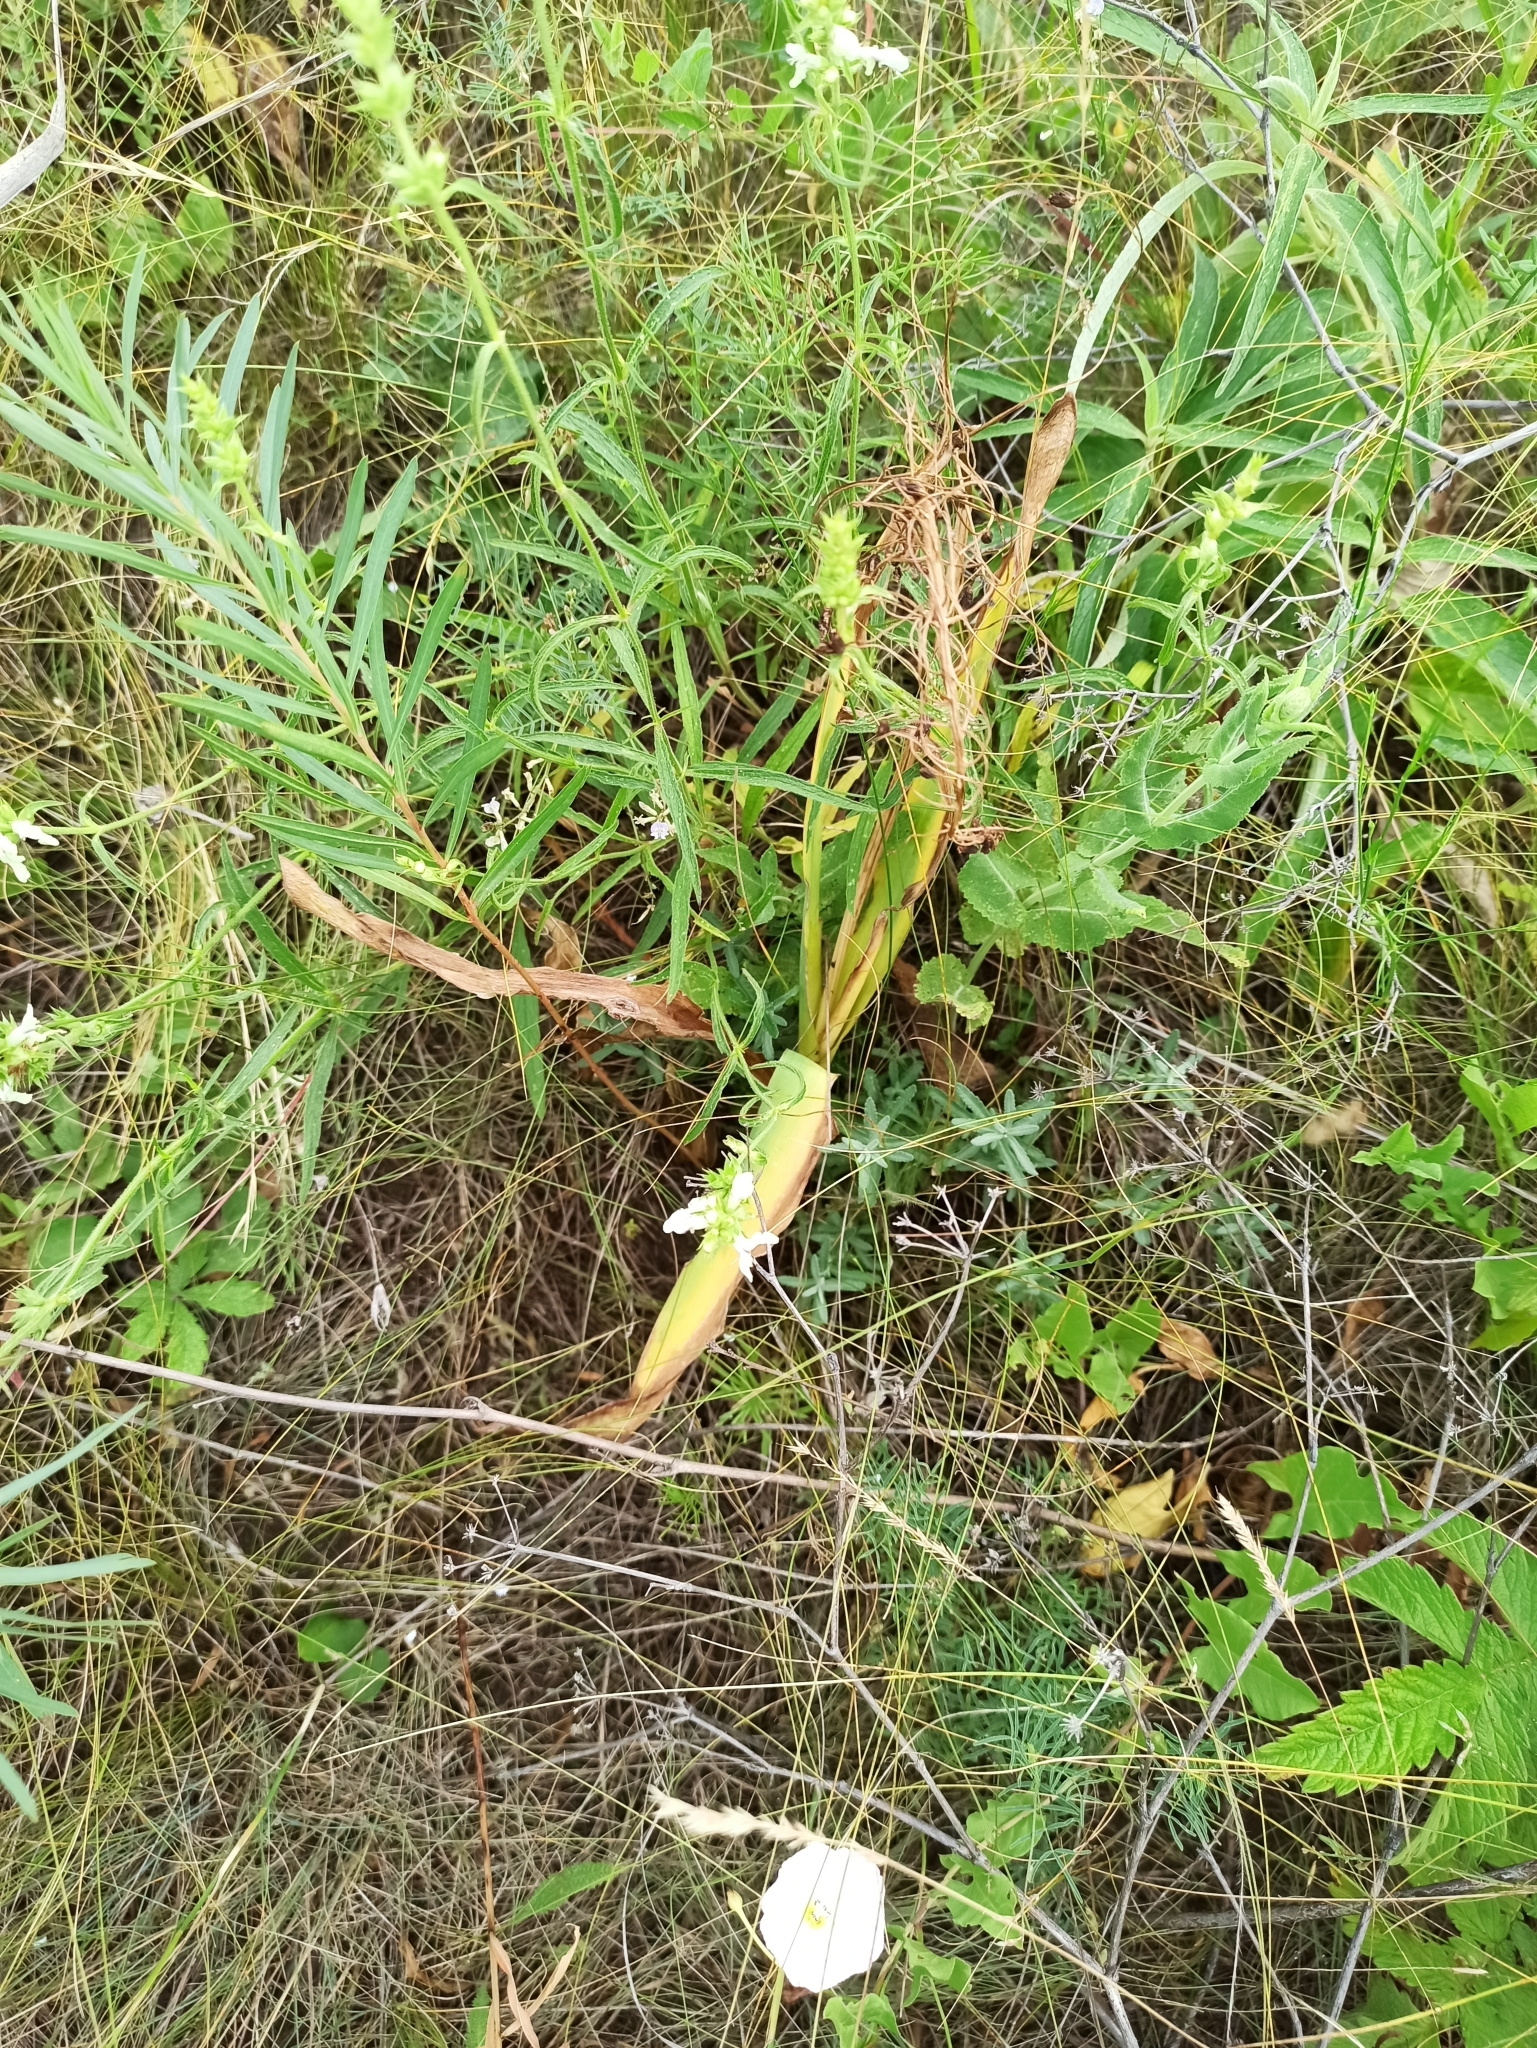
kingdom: Plantae
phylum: Tracheophyta
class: Liliopsida
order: Asparagales
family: Asparagaceae
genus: Bellevalia
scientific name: Bellevalia speciosa
